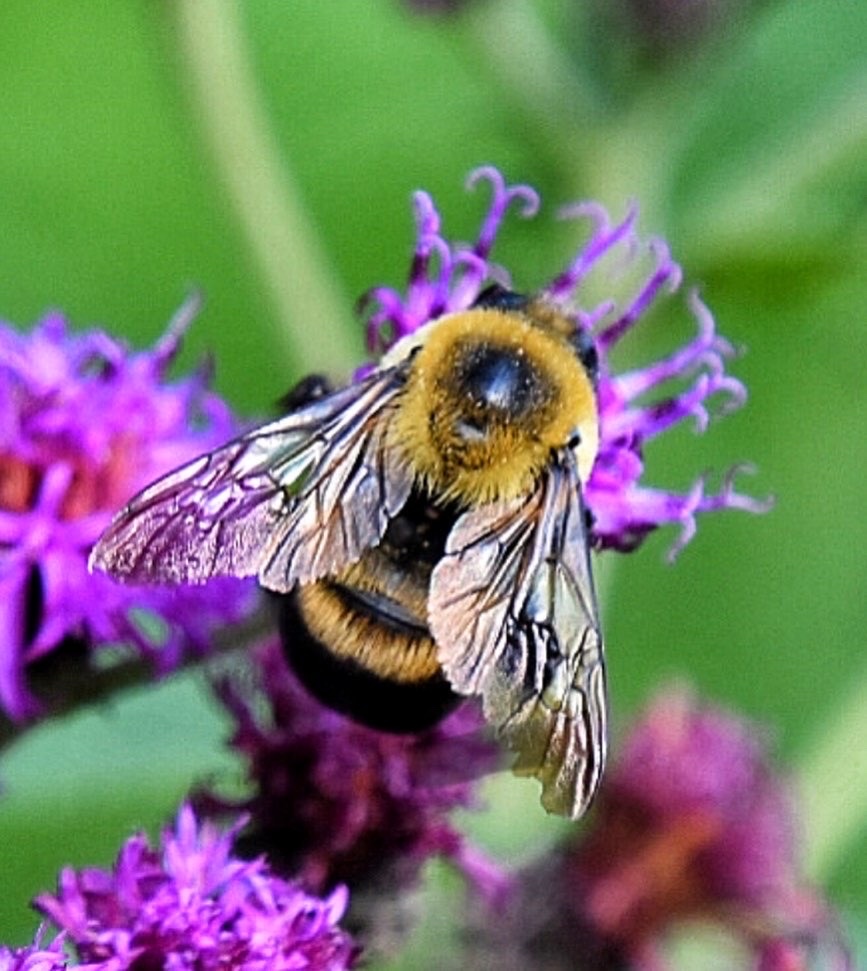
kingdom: Animalia
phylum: Arthropoda
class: Insecta
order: Hymenoptera
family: Apidae
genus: Bombus
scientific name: Bombus griseocollis
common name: Brown-belted bumble bee
